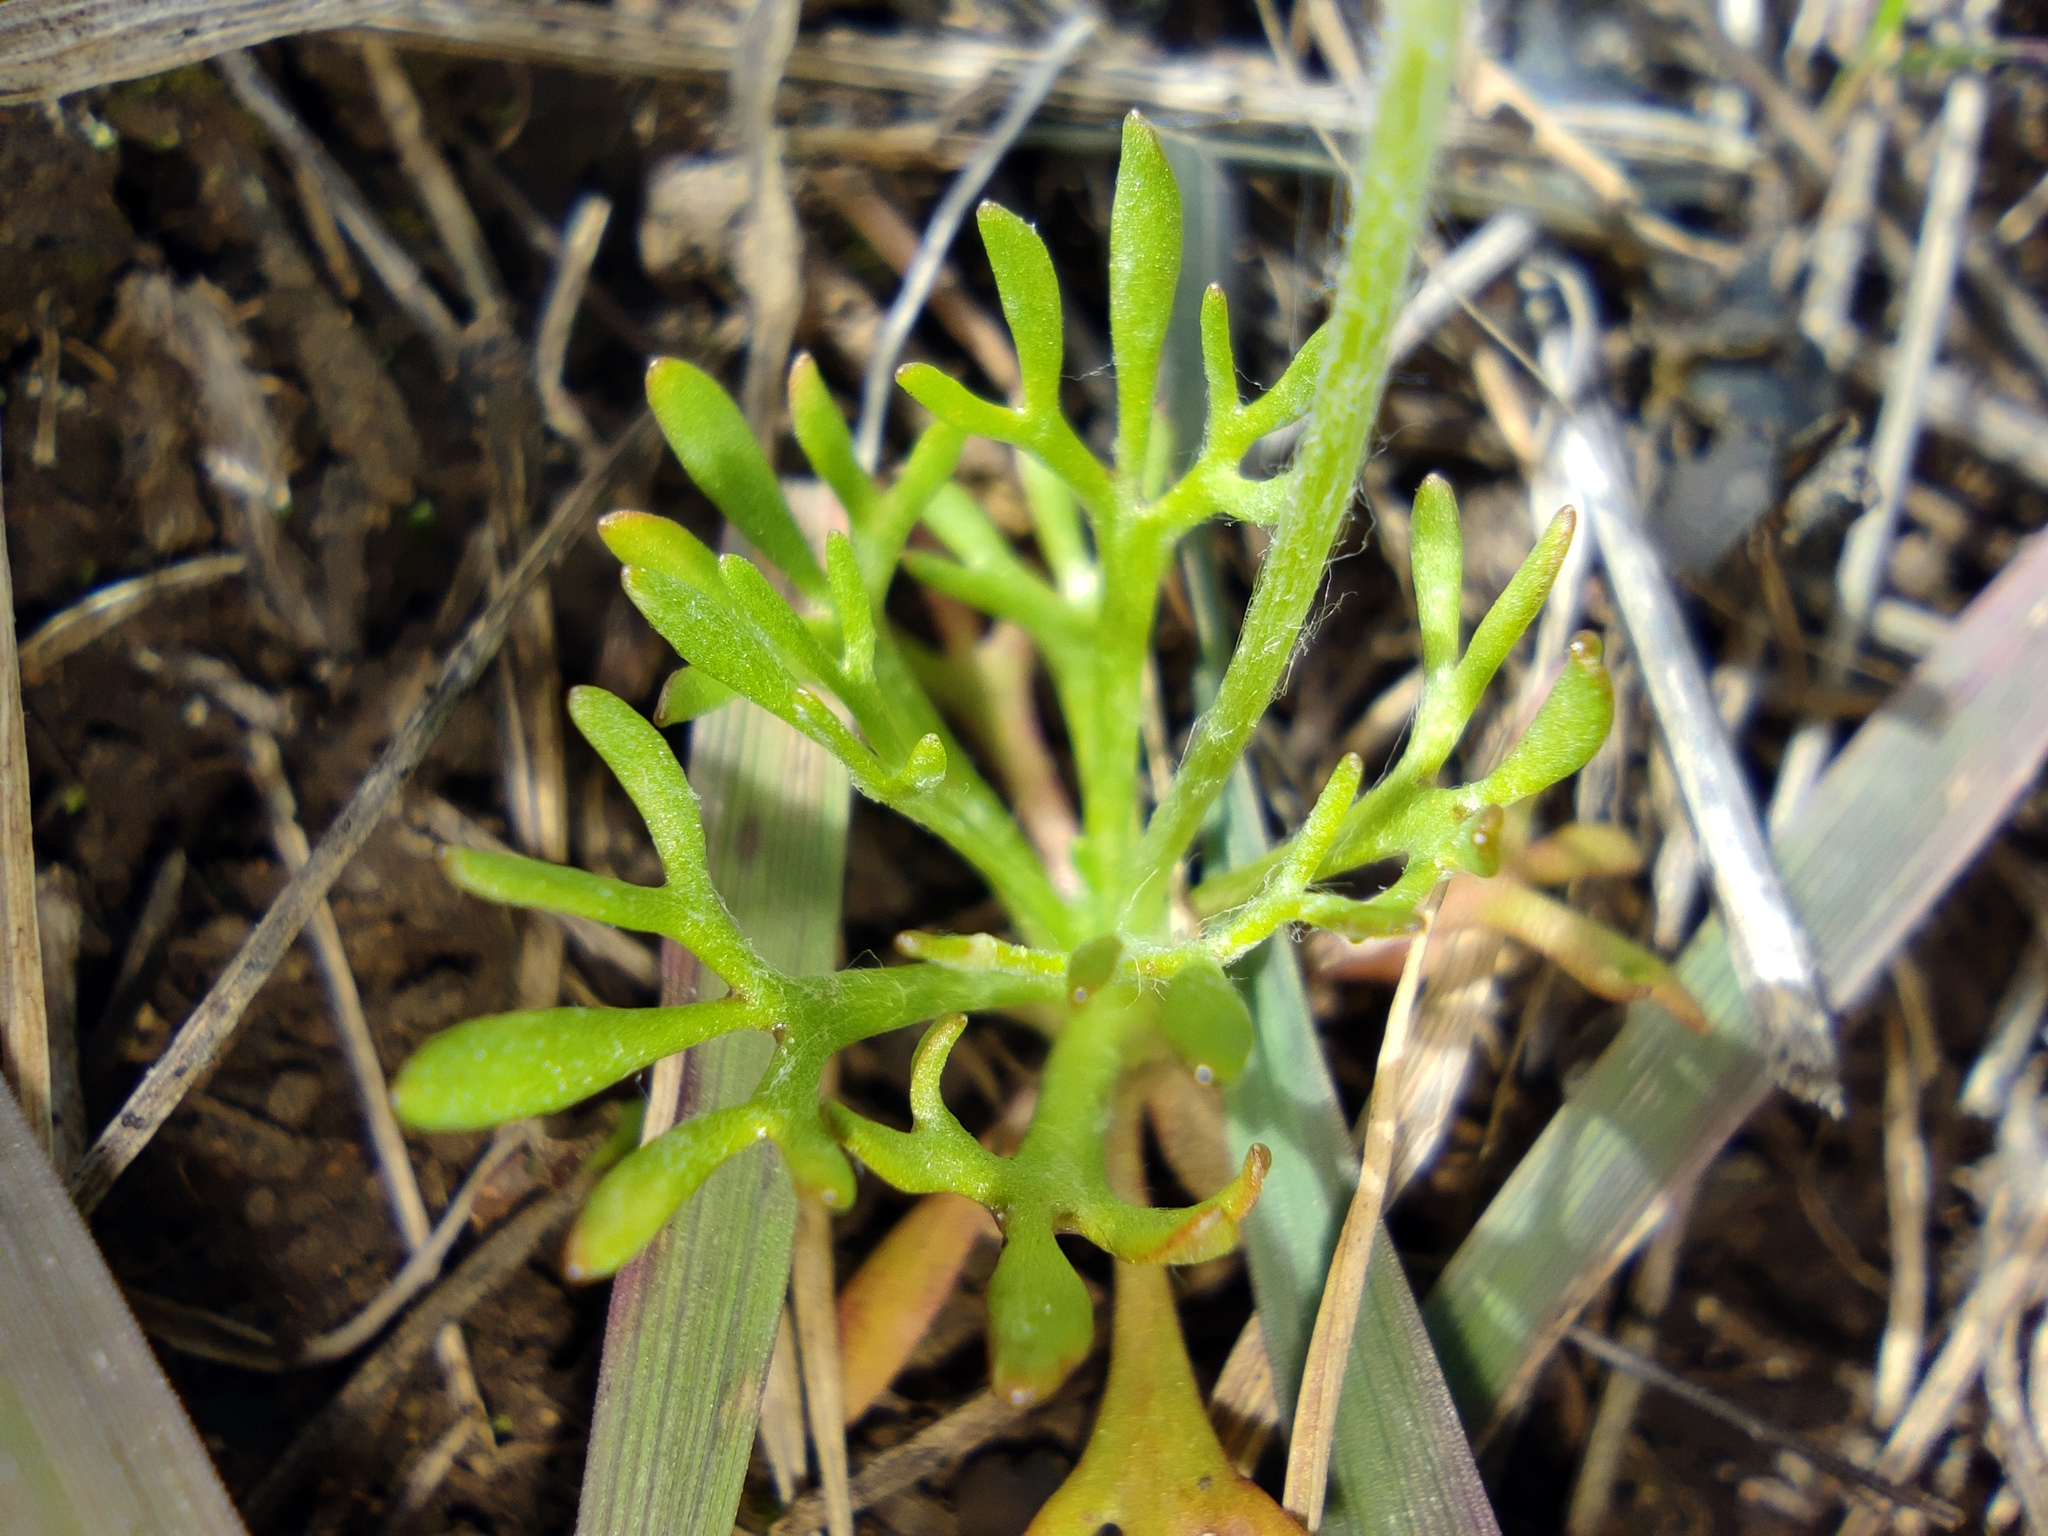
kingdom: Plantae
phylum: Tracheophyta
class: Magnoliopsida
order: Ranunculales
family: Ranunculaceae
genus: Ceratocephala
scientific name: Ceratocephala orthoceras
